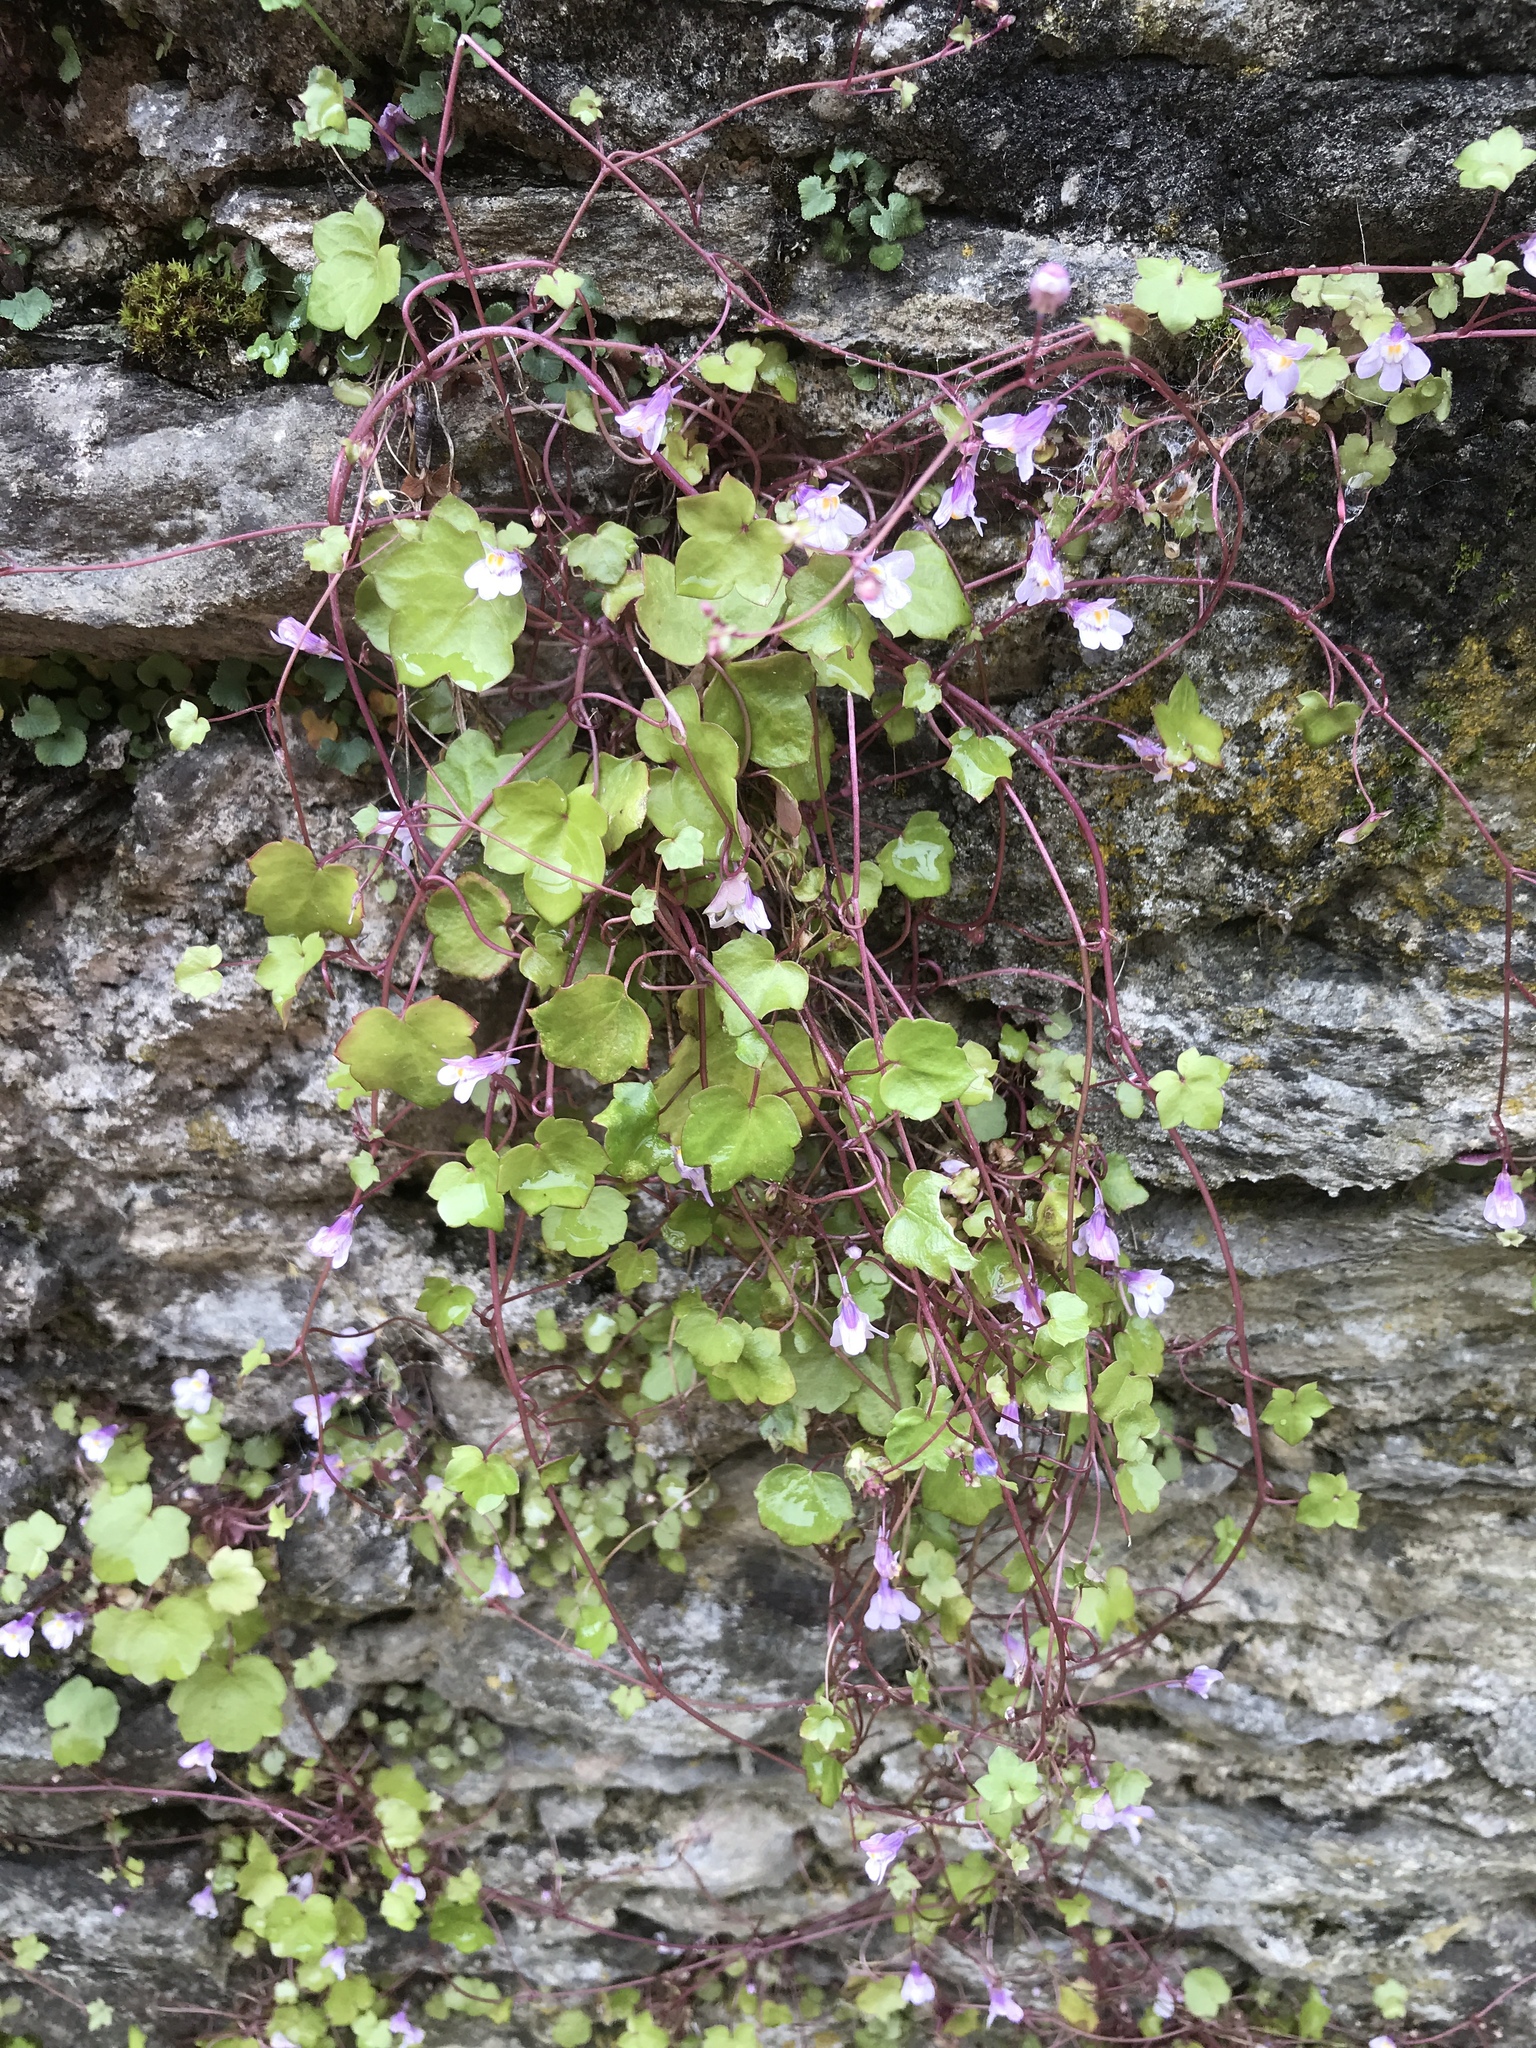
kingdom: Plantae
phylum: Tracheophyta
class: Magnoliopsida
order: Lamiales
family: Plantaginaceae
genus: Cymbalaria
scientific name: Cymbalaria muralis
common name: Ivy-leaved toadflax
